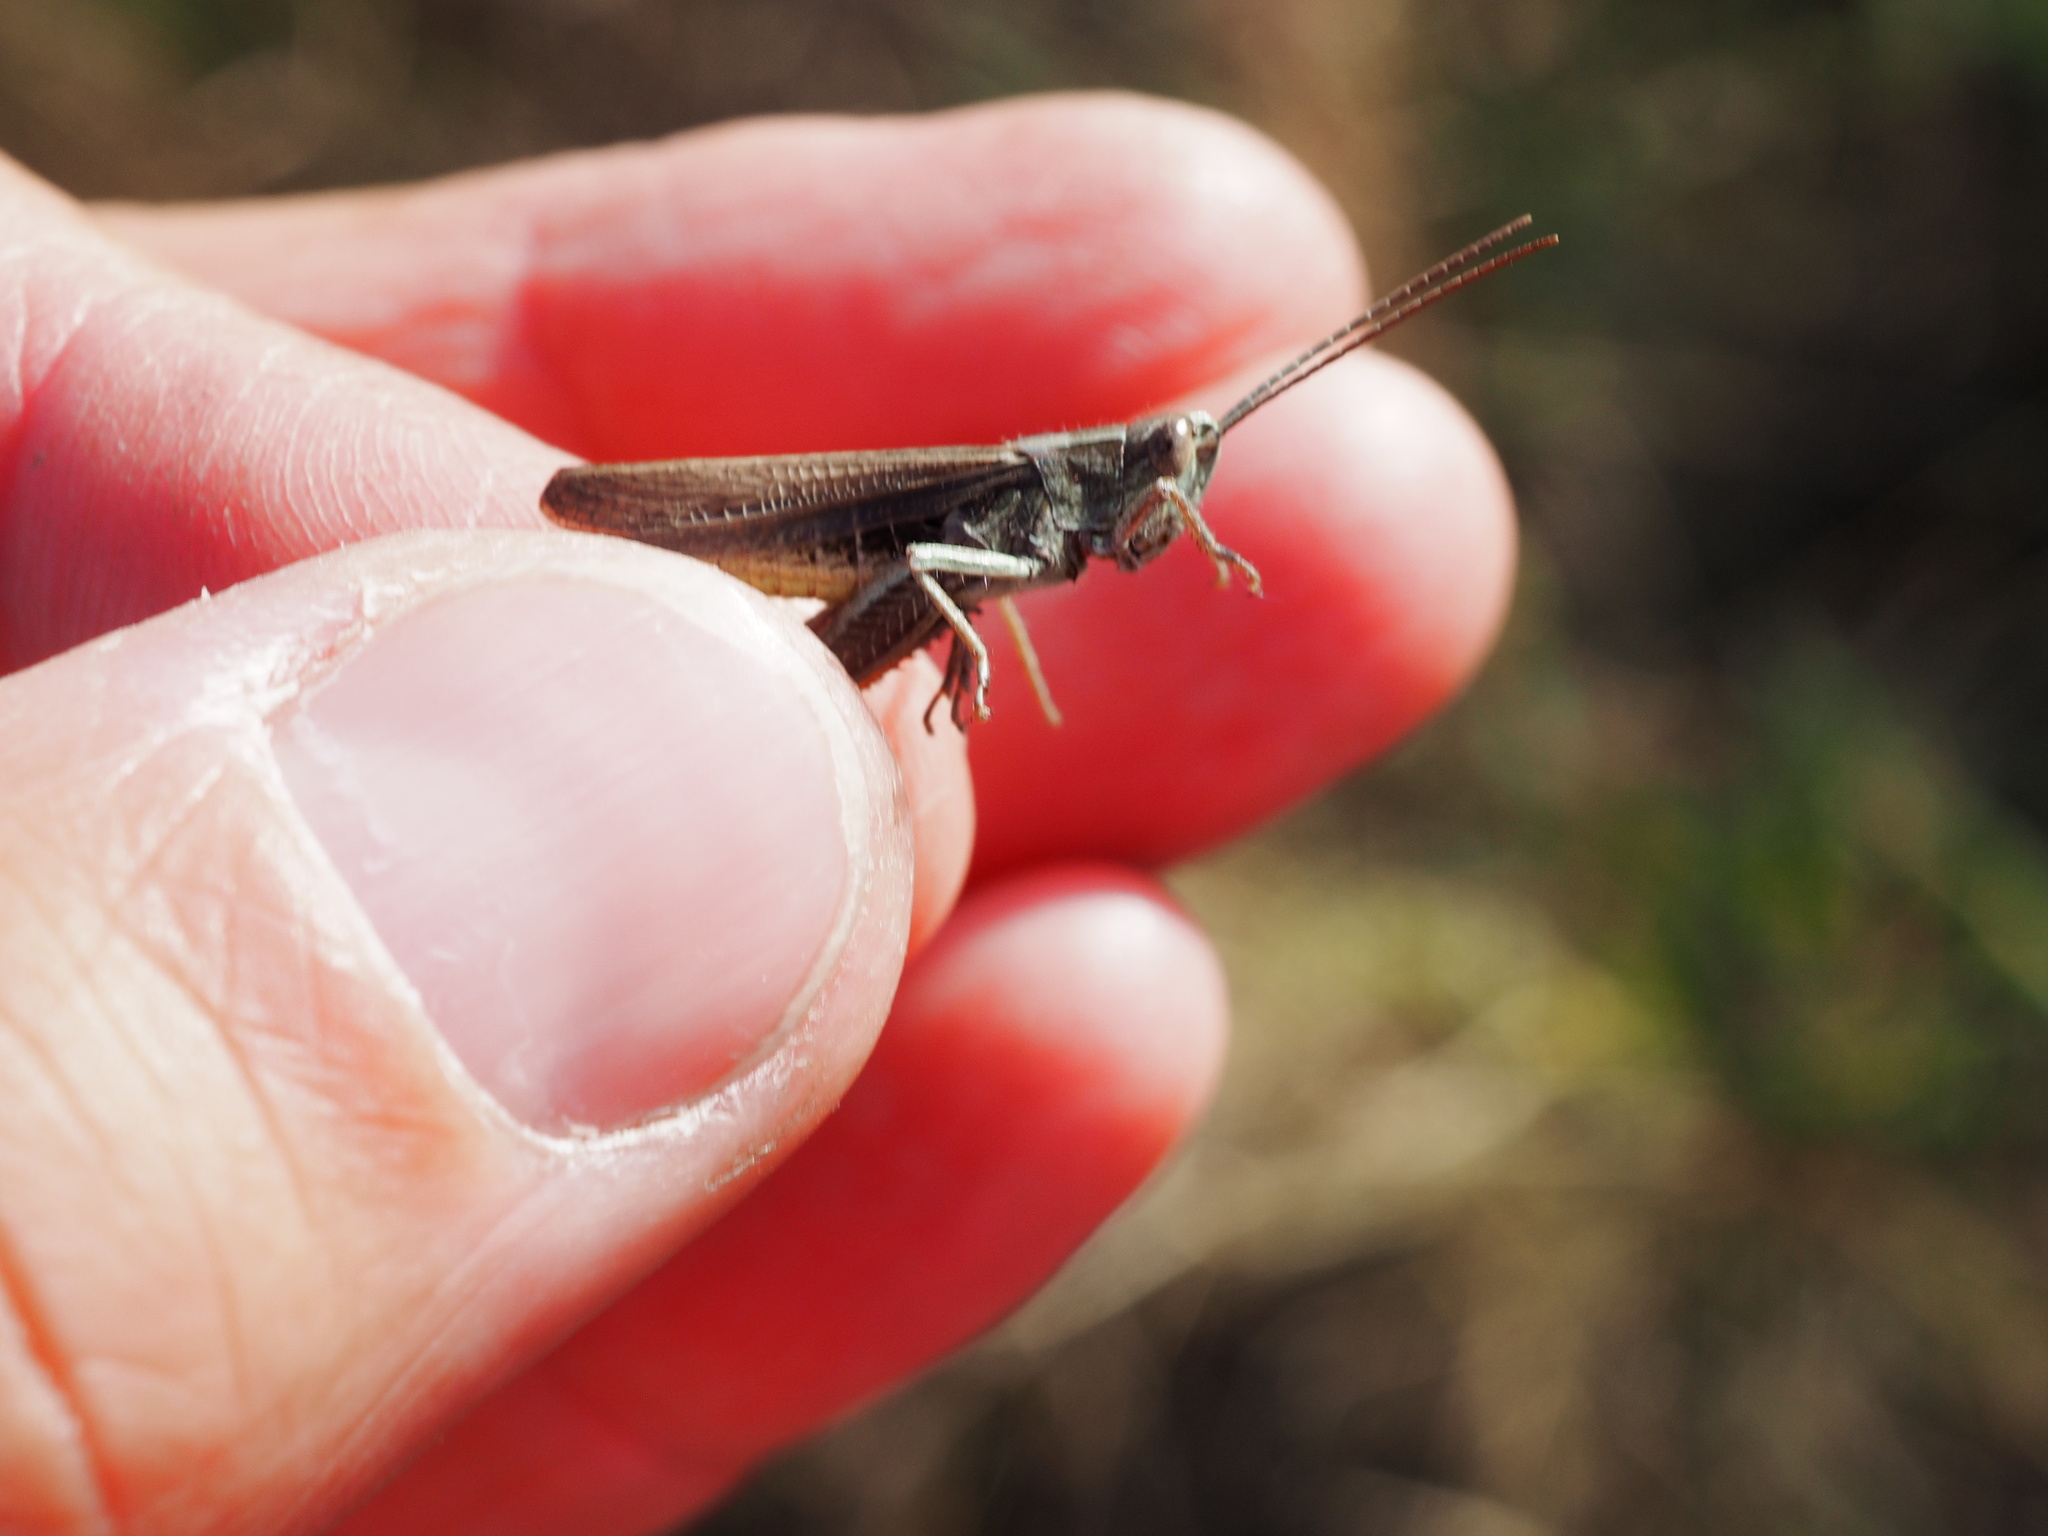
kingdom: Animalia
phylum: Arthropoda
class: Insecta
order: Orthoptera
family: Acrididae
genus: Chorthippus
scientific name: Chorthippus dorsatus
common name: Steppe grasshopper
